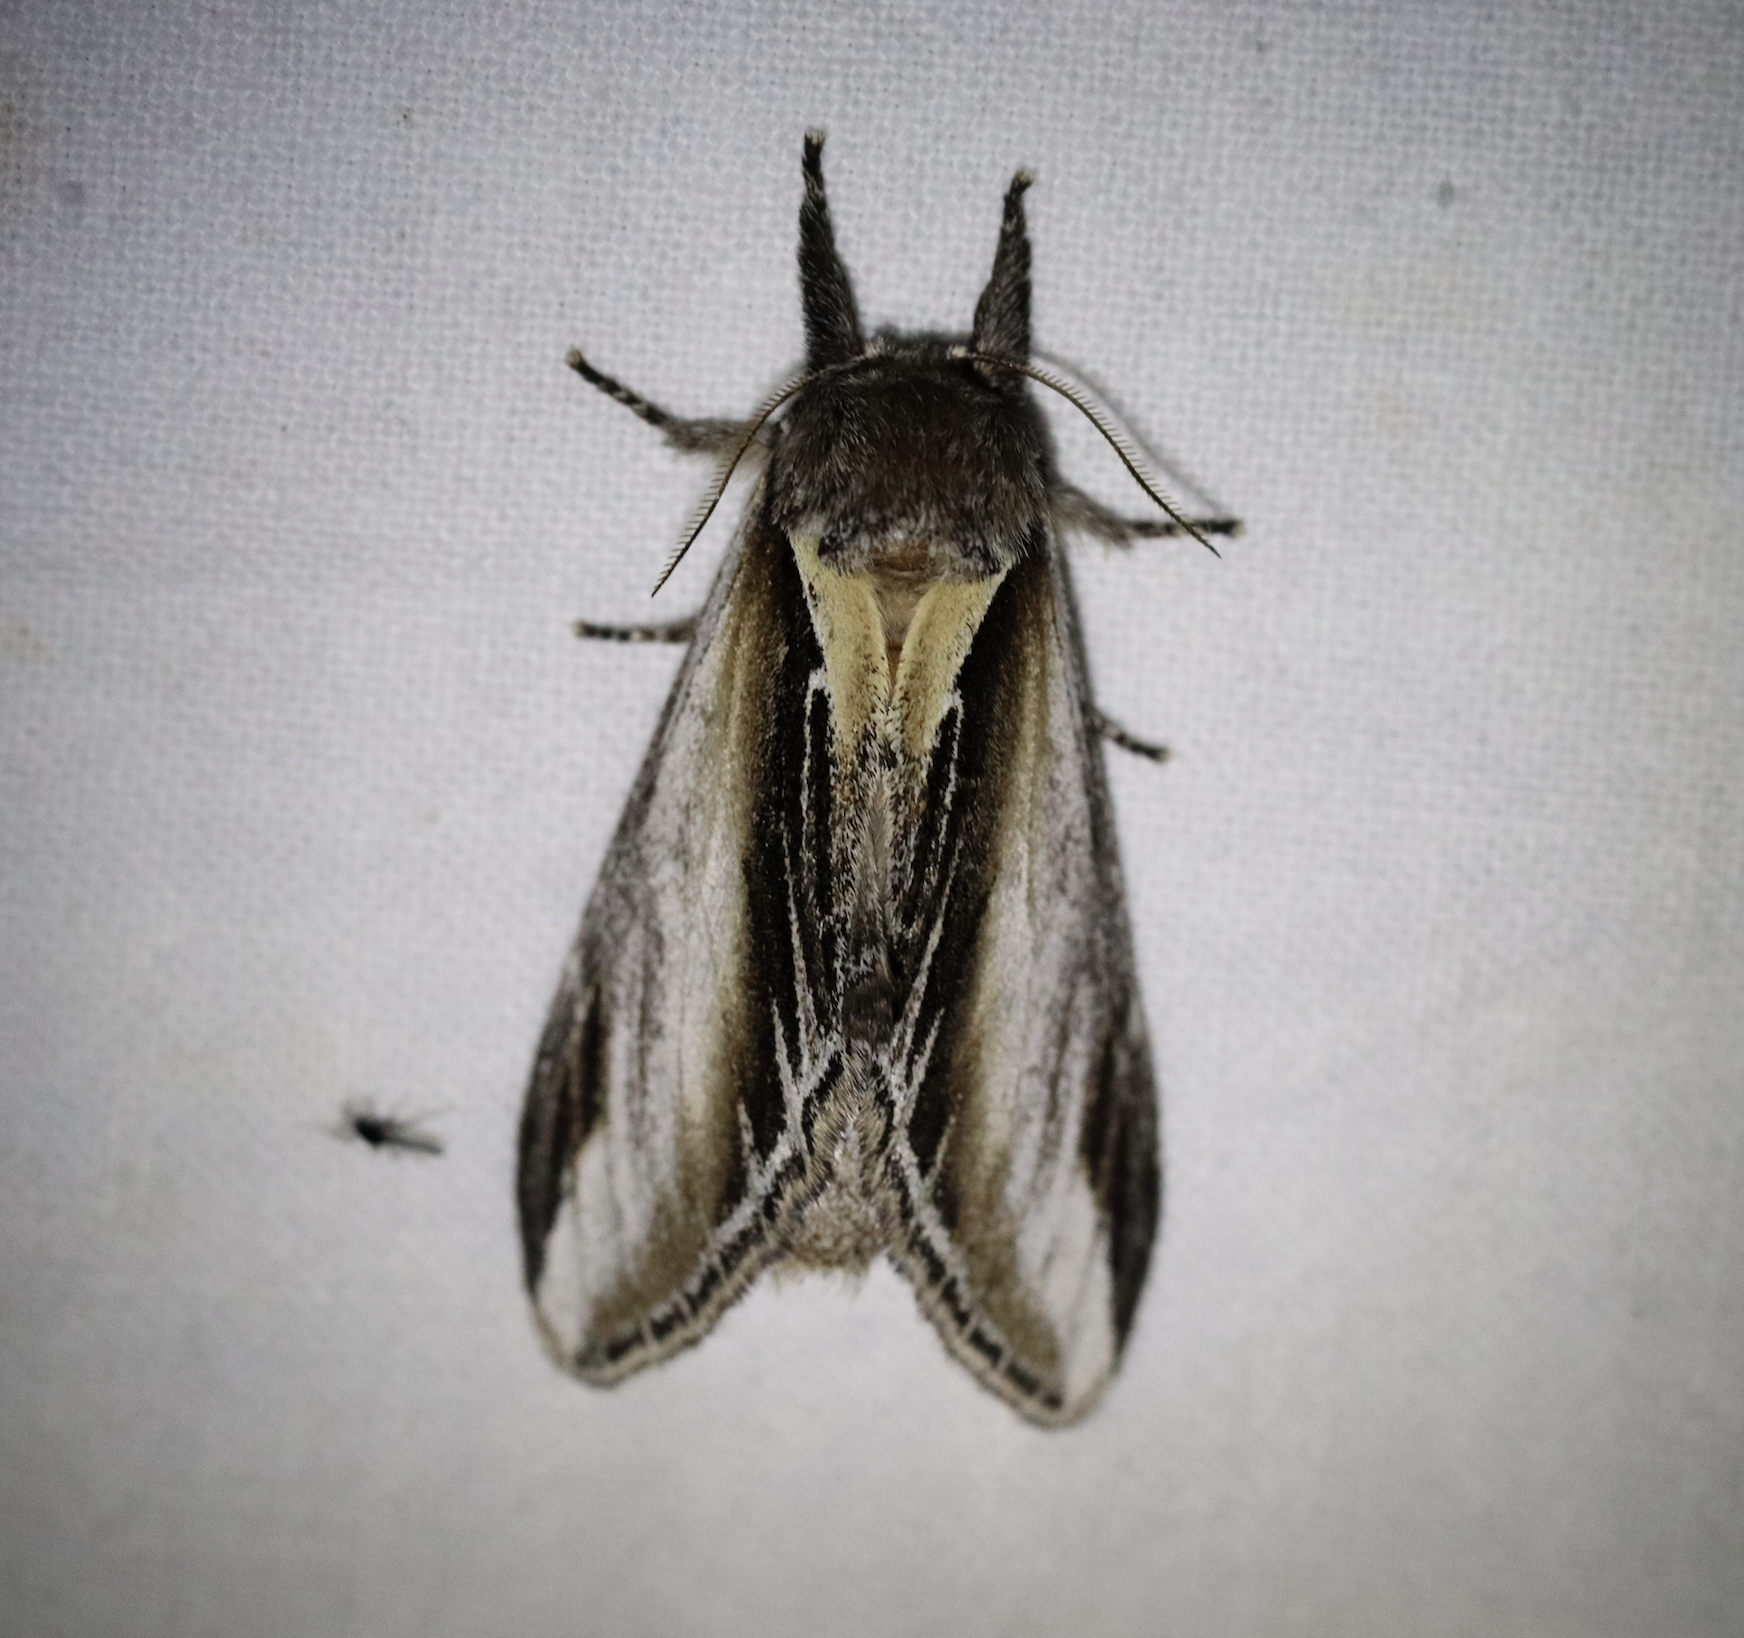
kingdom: Animalia
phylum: Arthropoda
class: Insecta
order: Lepidoptera
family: Notodontidae
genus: Pheosia
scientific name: Pheosia tremula
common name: Swallow prominent
